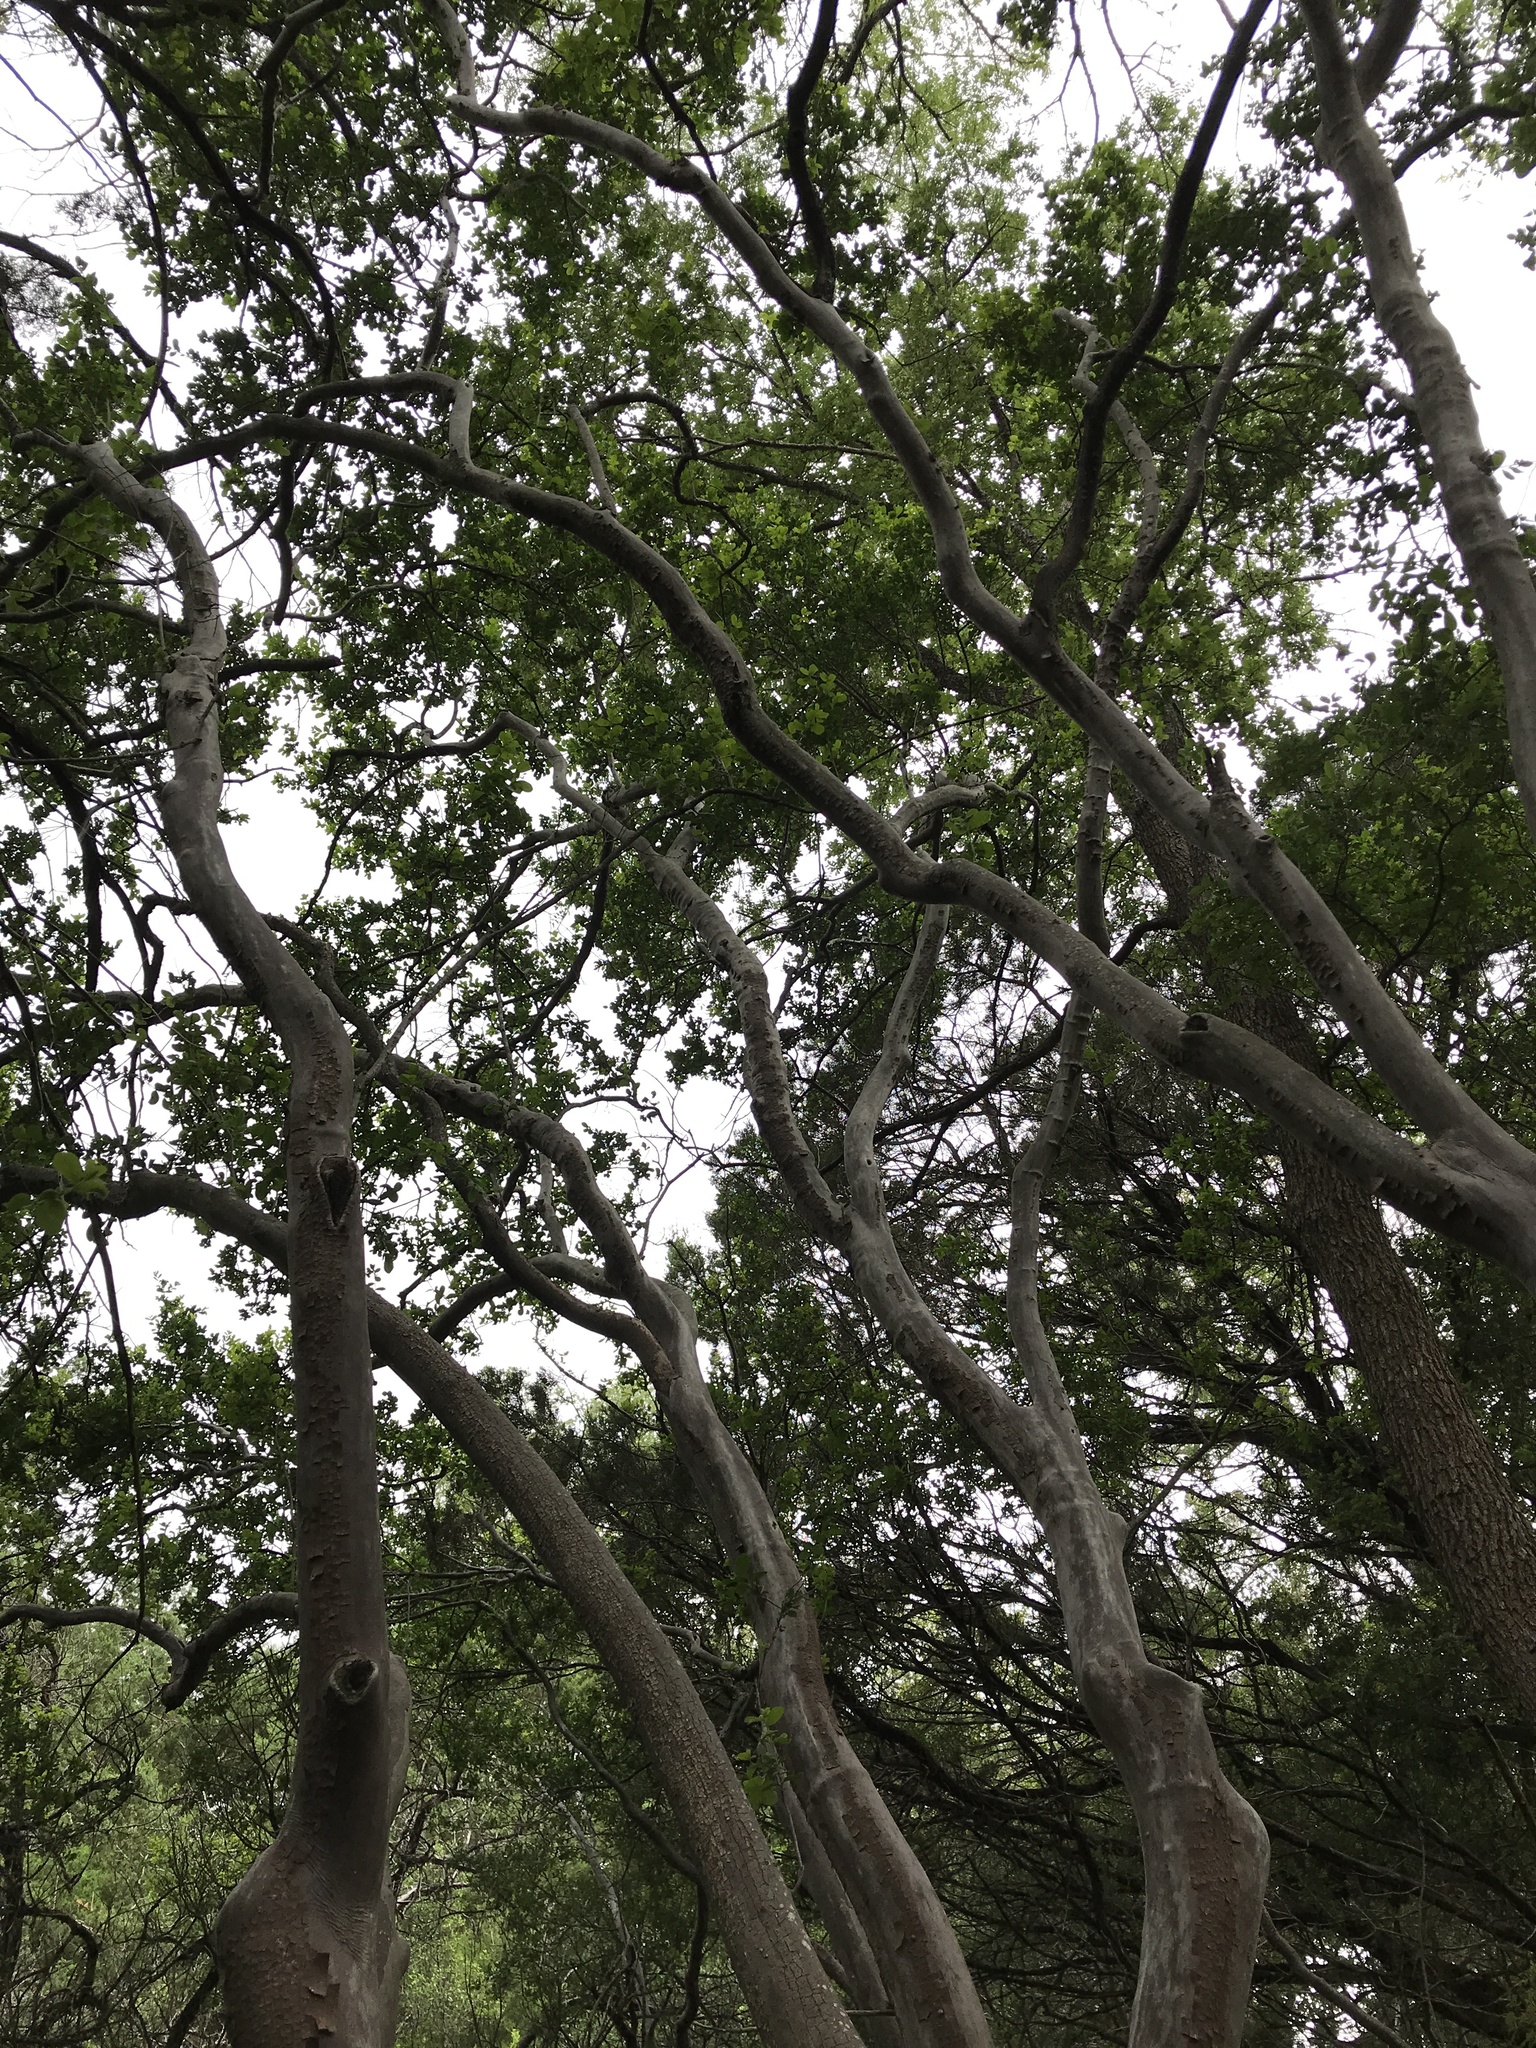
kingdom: Plantae
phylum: Tracheophyta
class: Magnoliopsida
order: Ericales
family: Ebenaceae
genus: Diospyros
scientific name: Diospyros texana
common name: Texas persimmon
